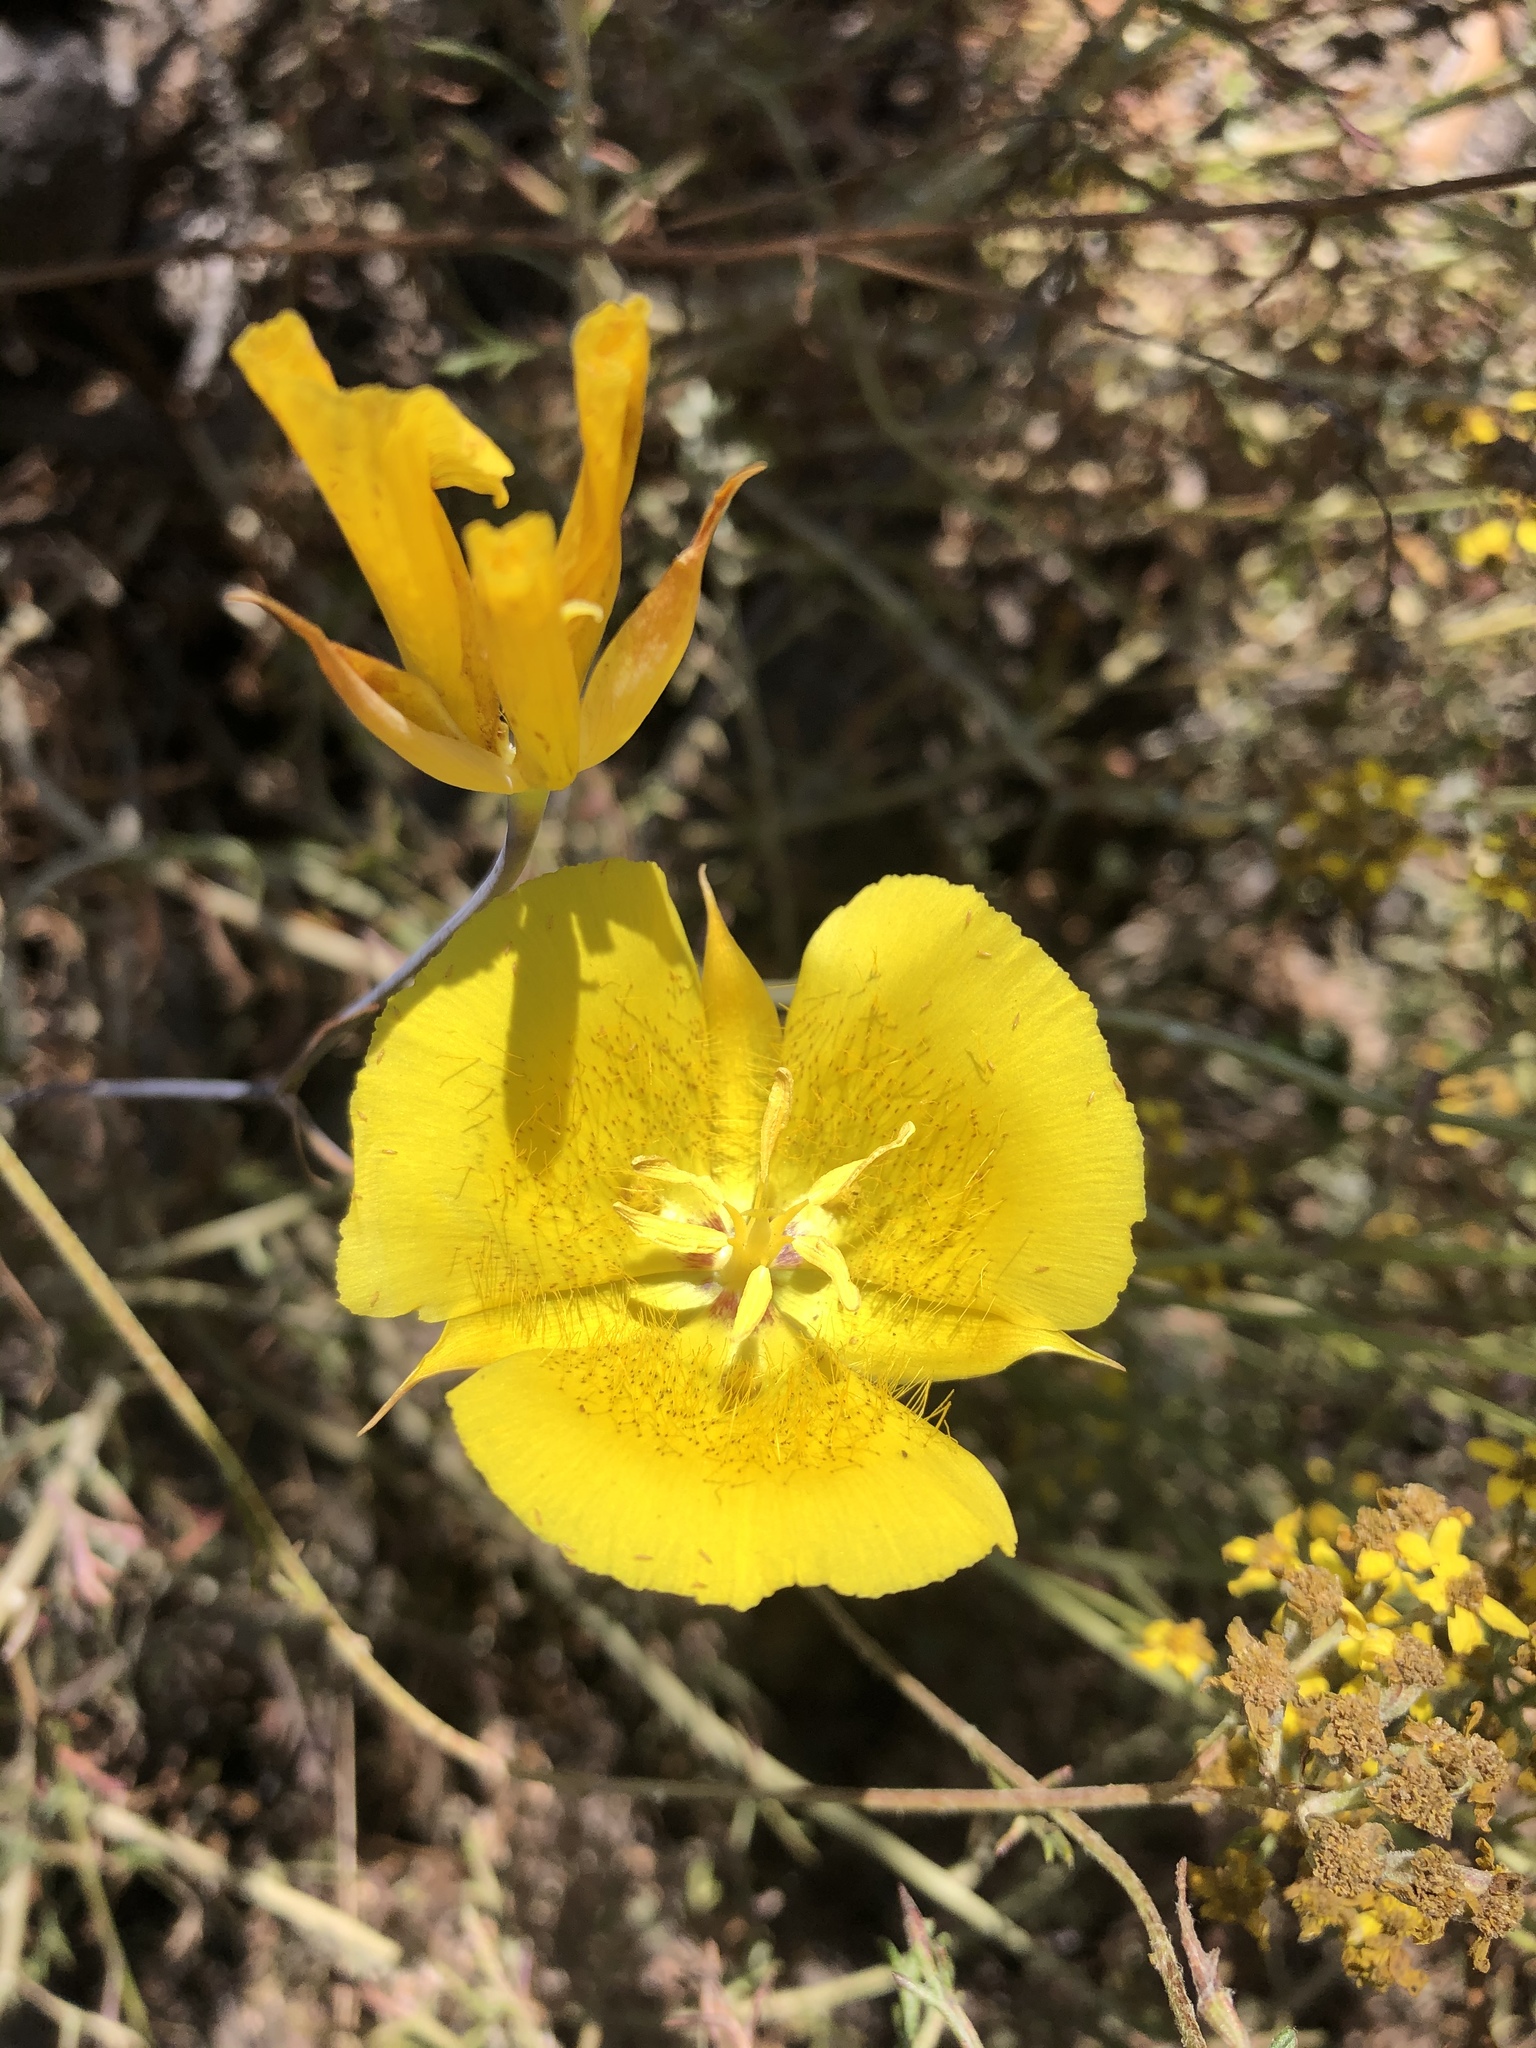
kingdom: Plantae
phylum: Tracheophyta
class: Liliopsida
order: Liliales
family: Liliaceae
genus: Calochortus
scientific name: Calochortus weedii
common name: Weed's mariposa-lily
